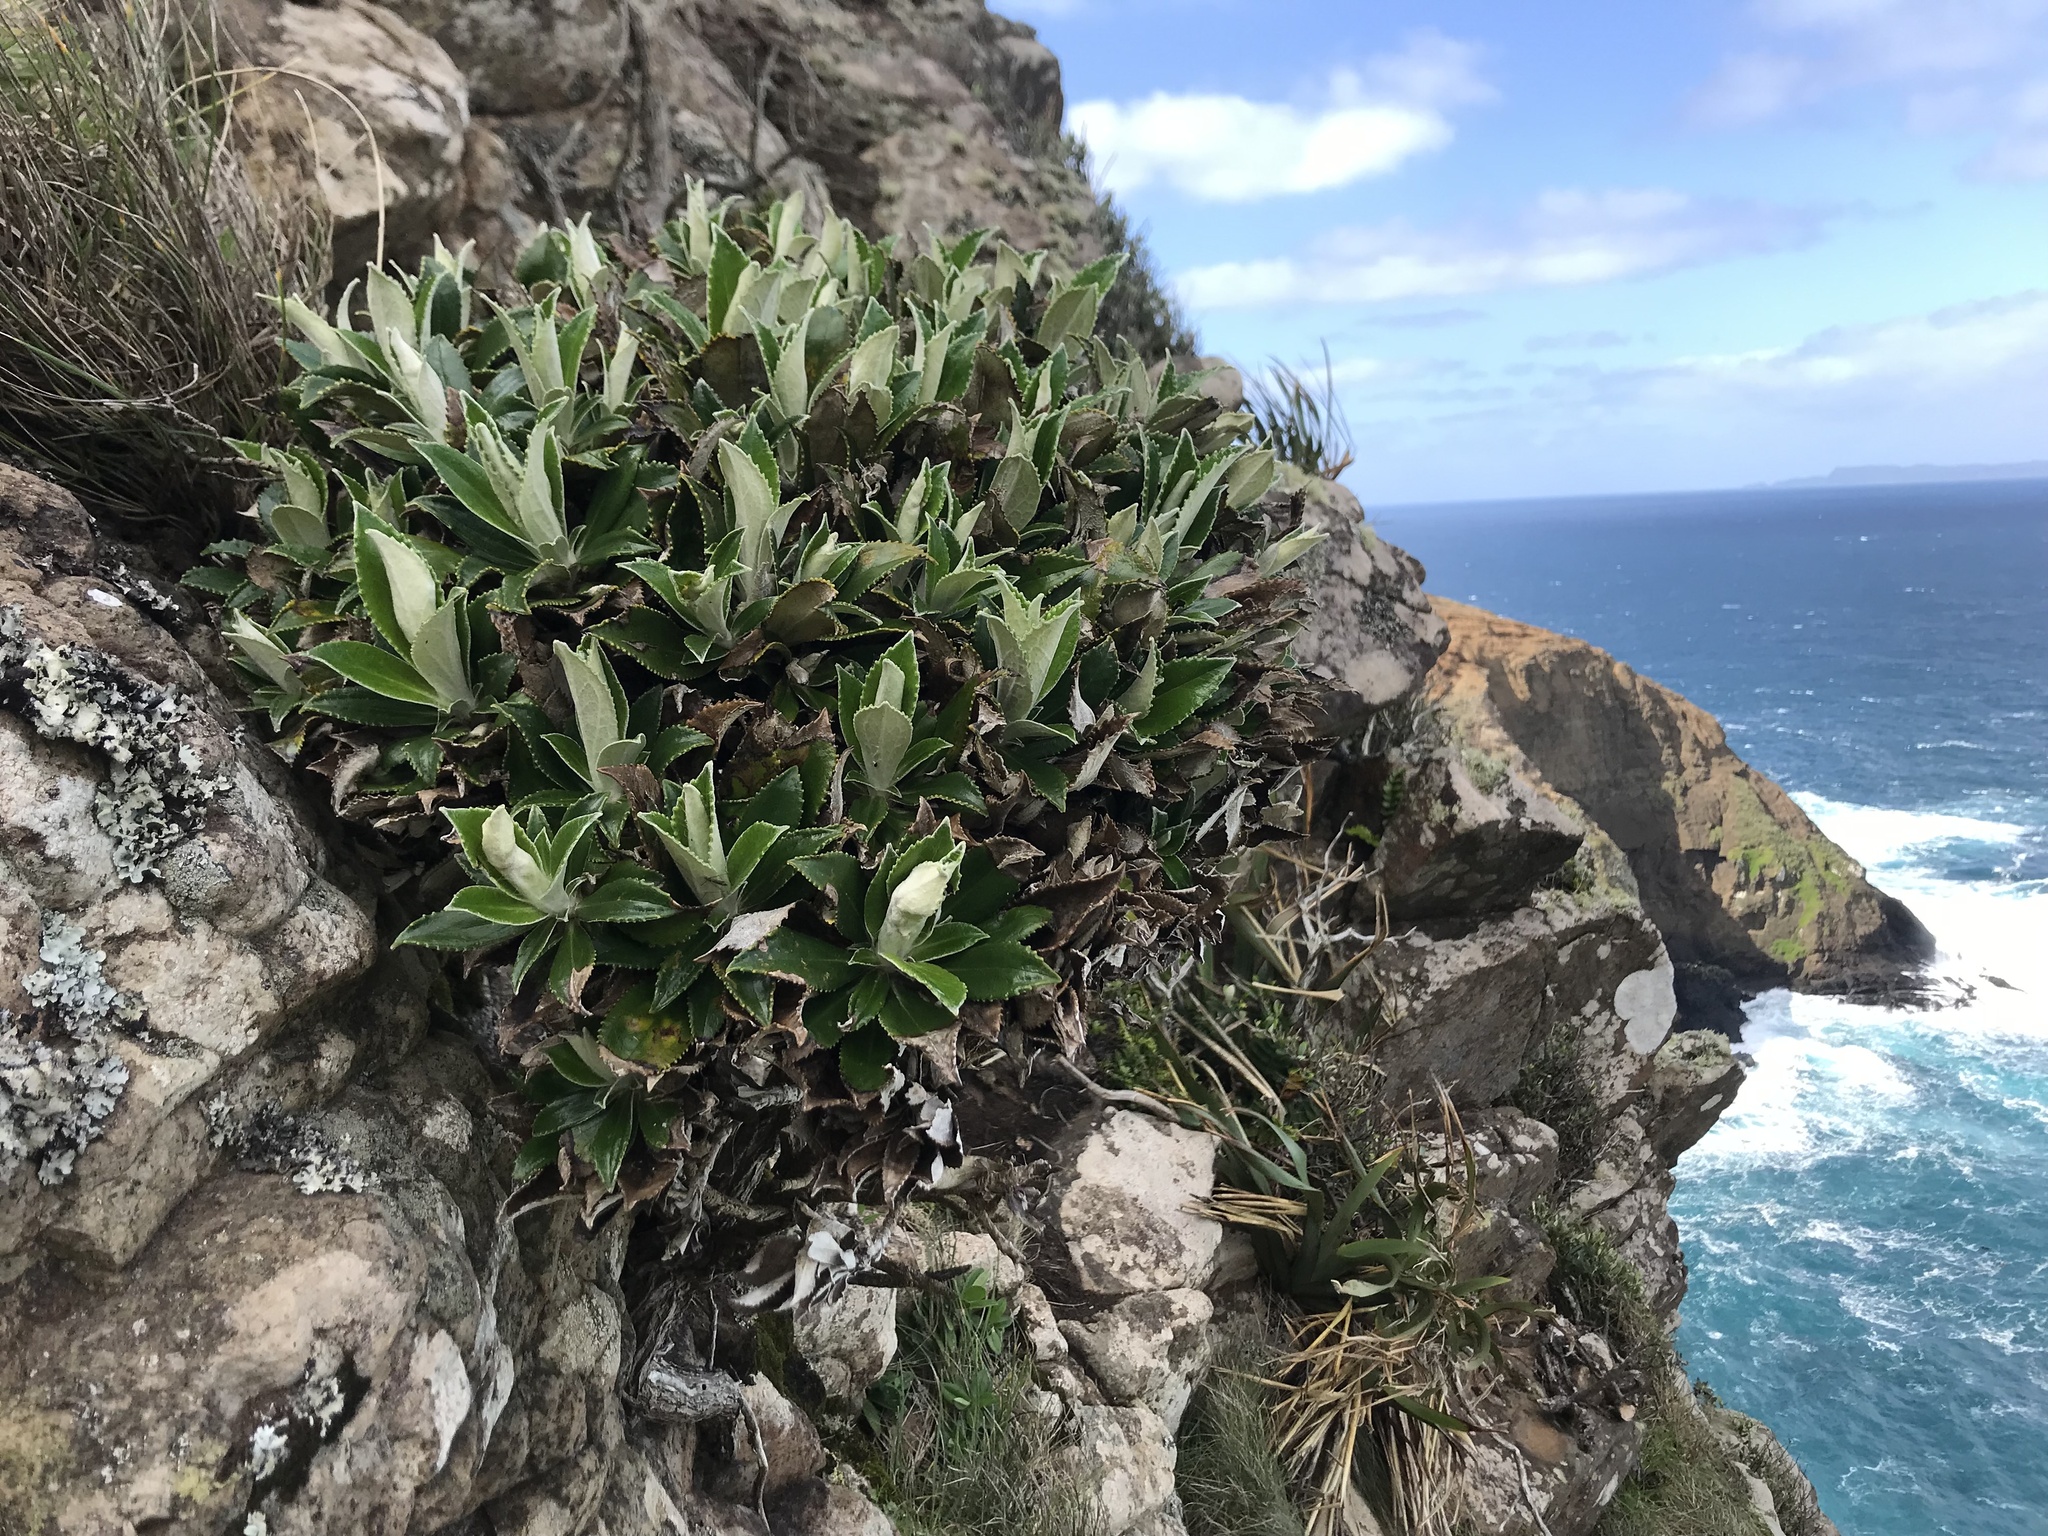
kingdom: Plantae
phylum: Tracheophyta
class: Magnoliopsida
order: Asterales
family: Asteraceae
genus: Macrolearia
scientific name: Macrolearia chathamica
